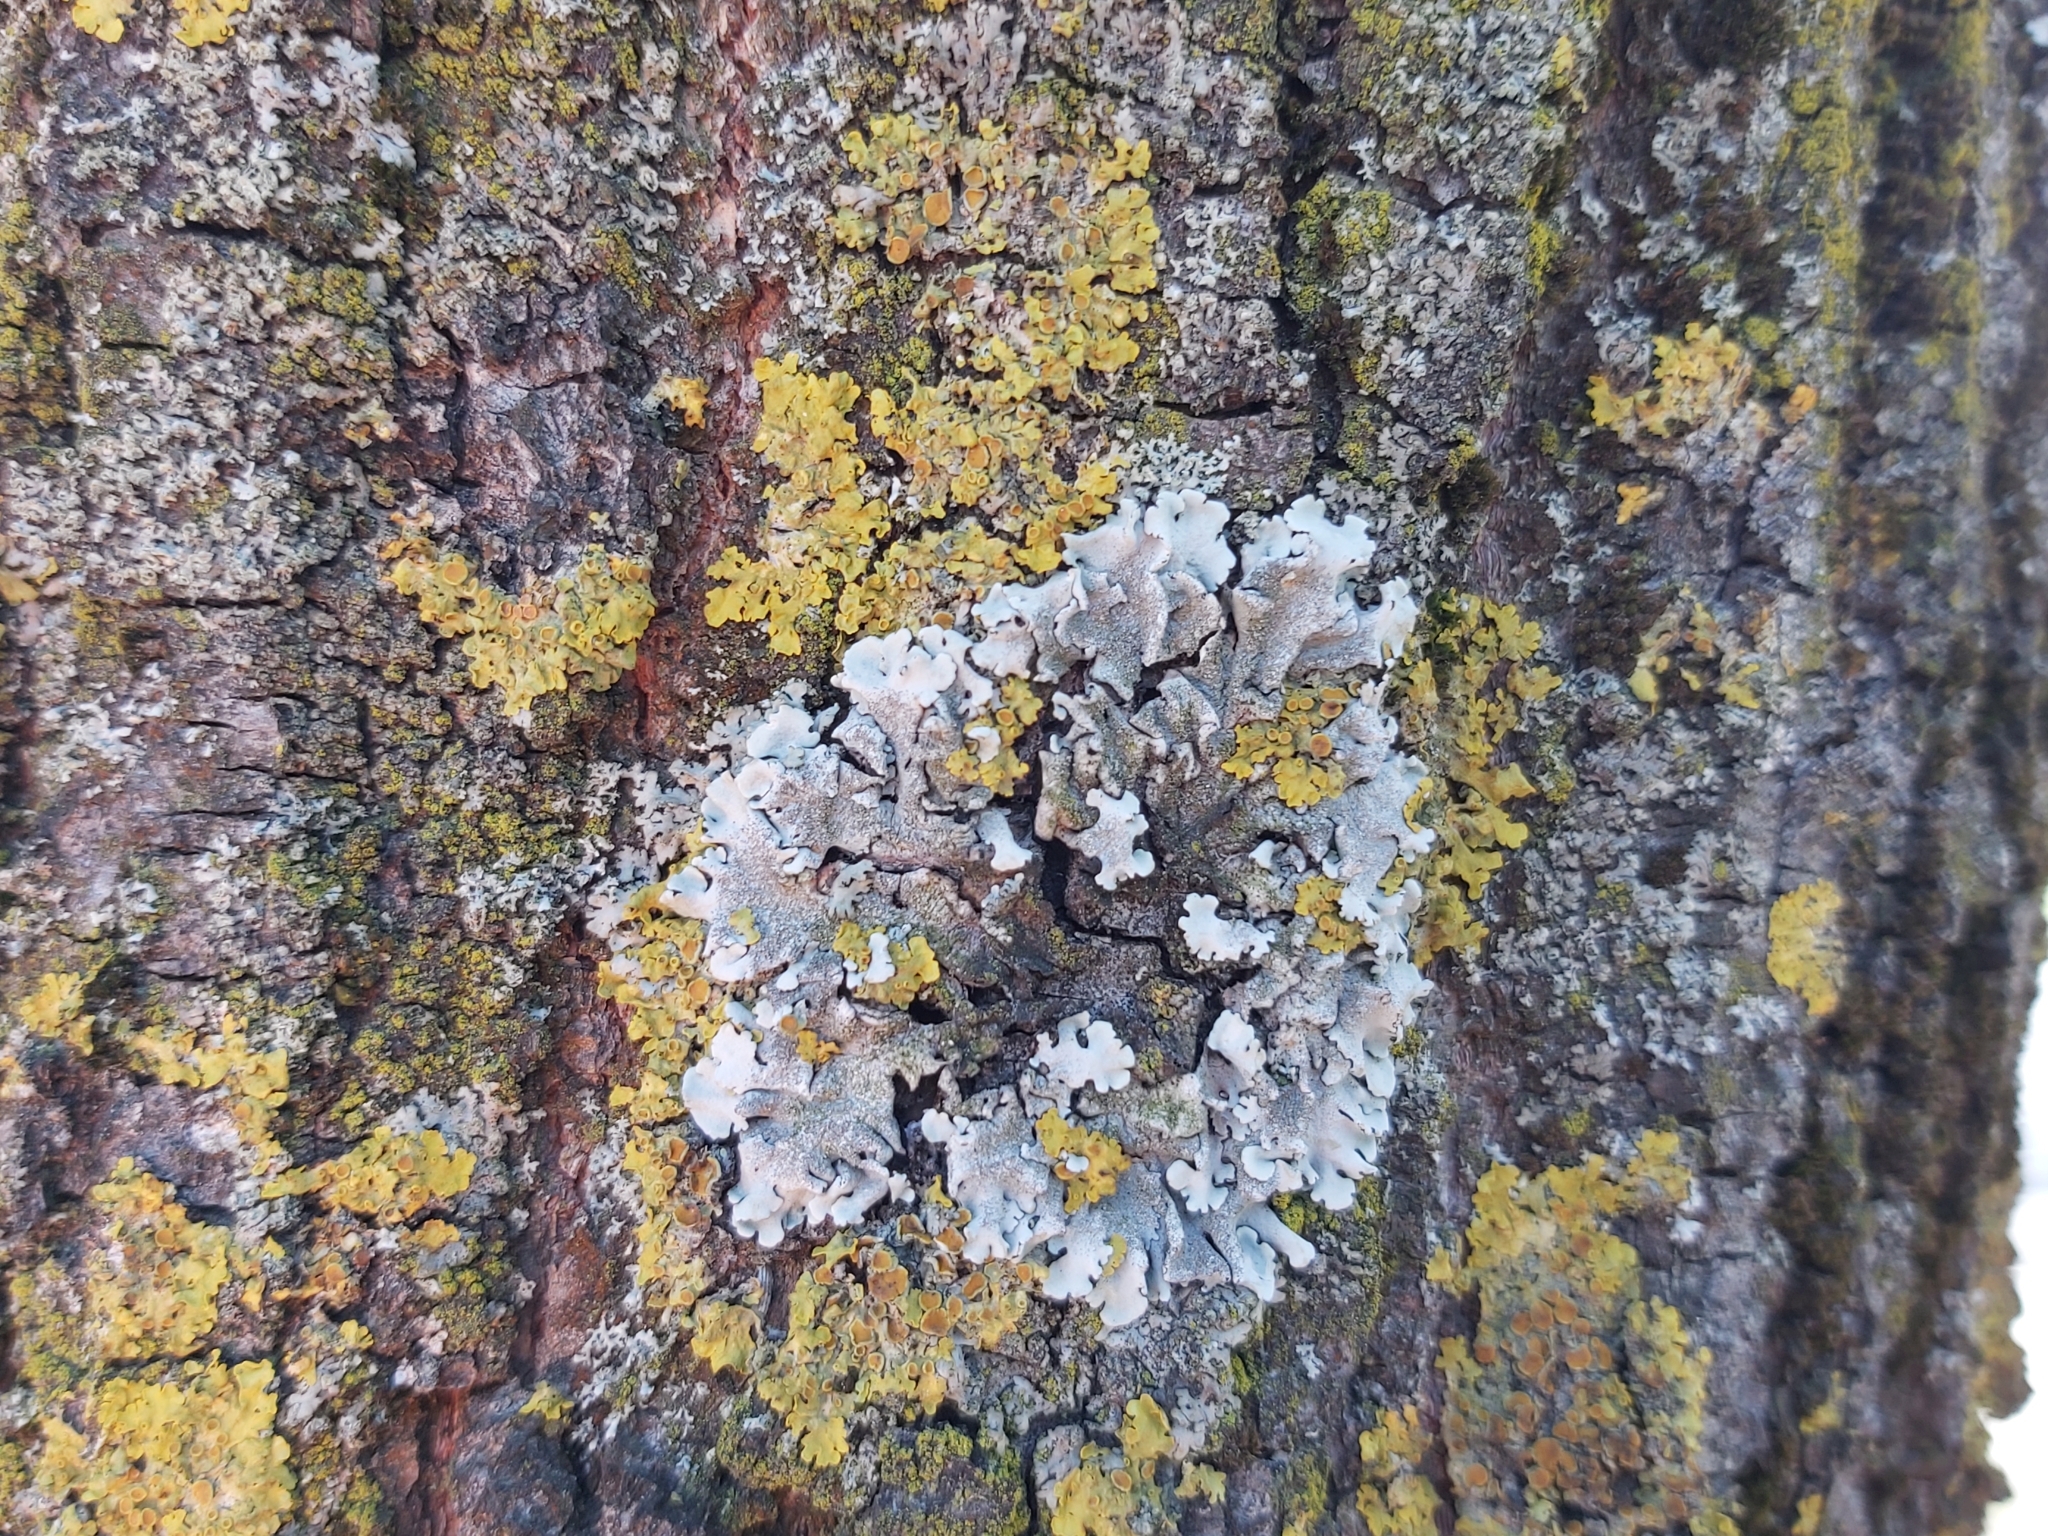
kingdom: Fungi
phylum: Ascomycota
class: Lecanoromycetes
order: Lecanorales
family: Parmeliaceae
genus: Parmelina
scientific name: Parmelina tiliacea
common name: Linden shield lichen
